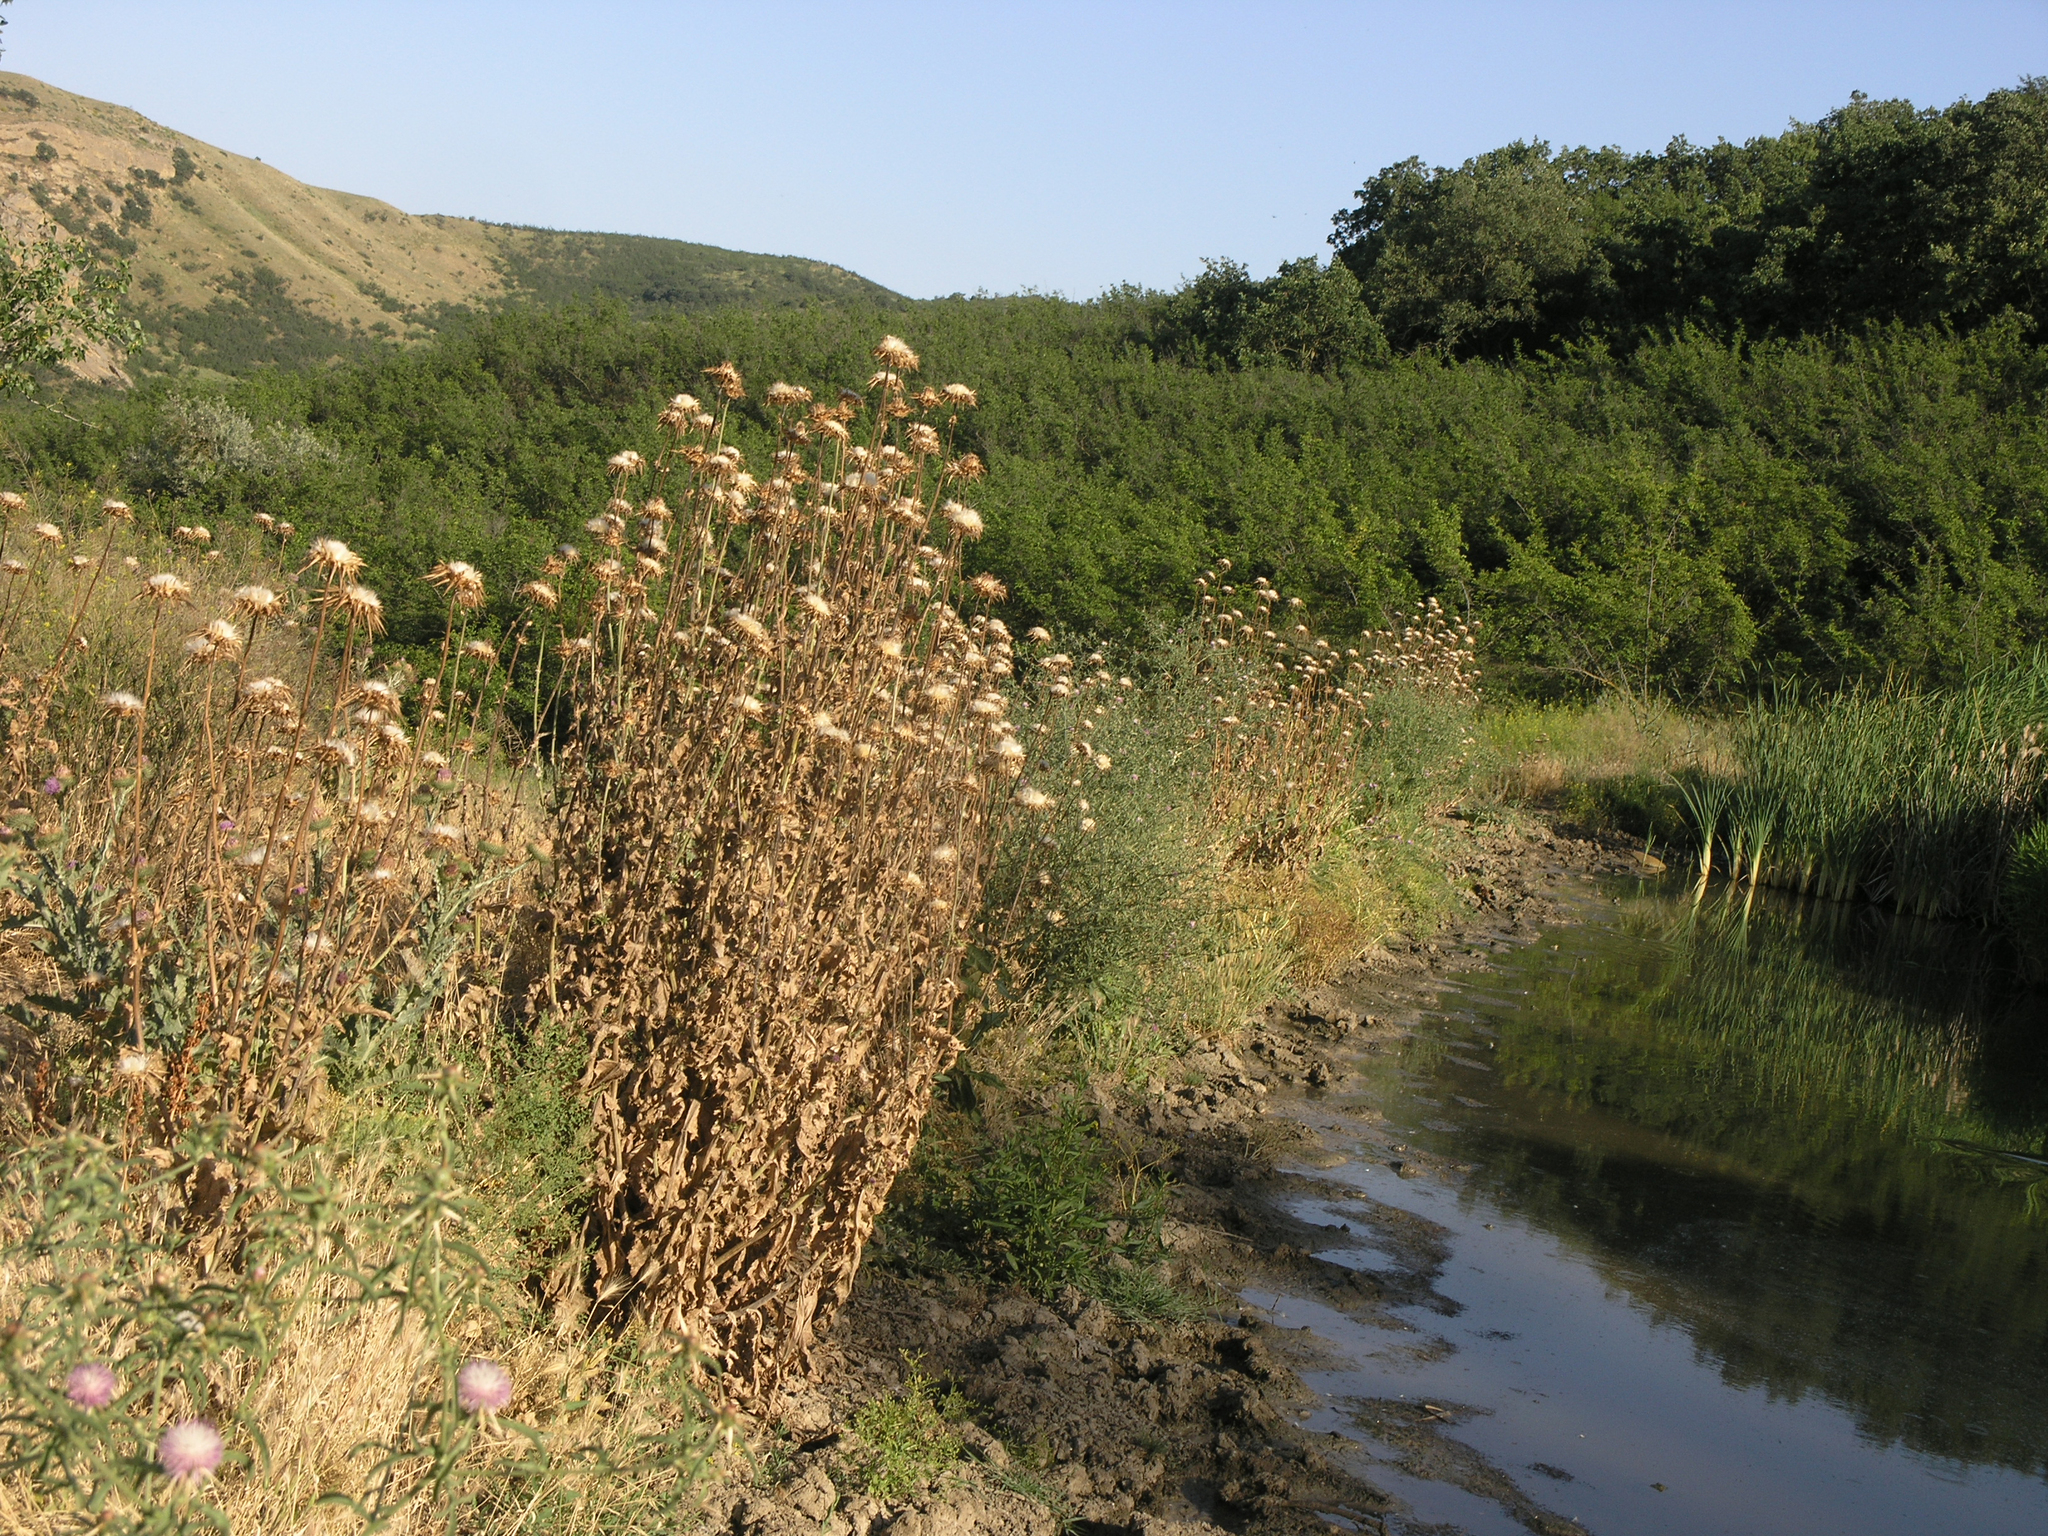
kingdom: Plantae
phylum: Tracheophyta
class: Magnoliopsida
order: Asterales
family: Asteraceae
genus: Silybum
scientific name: Silybum marianum
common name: Milk thistle
